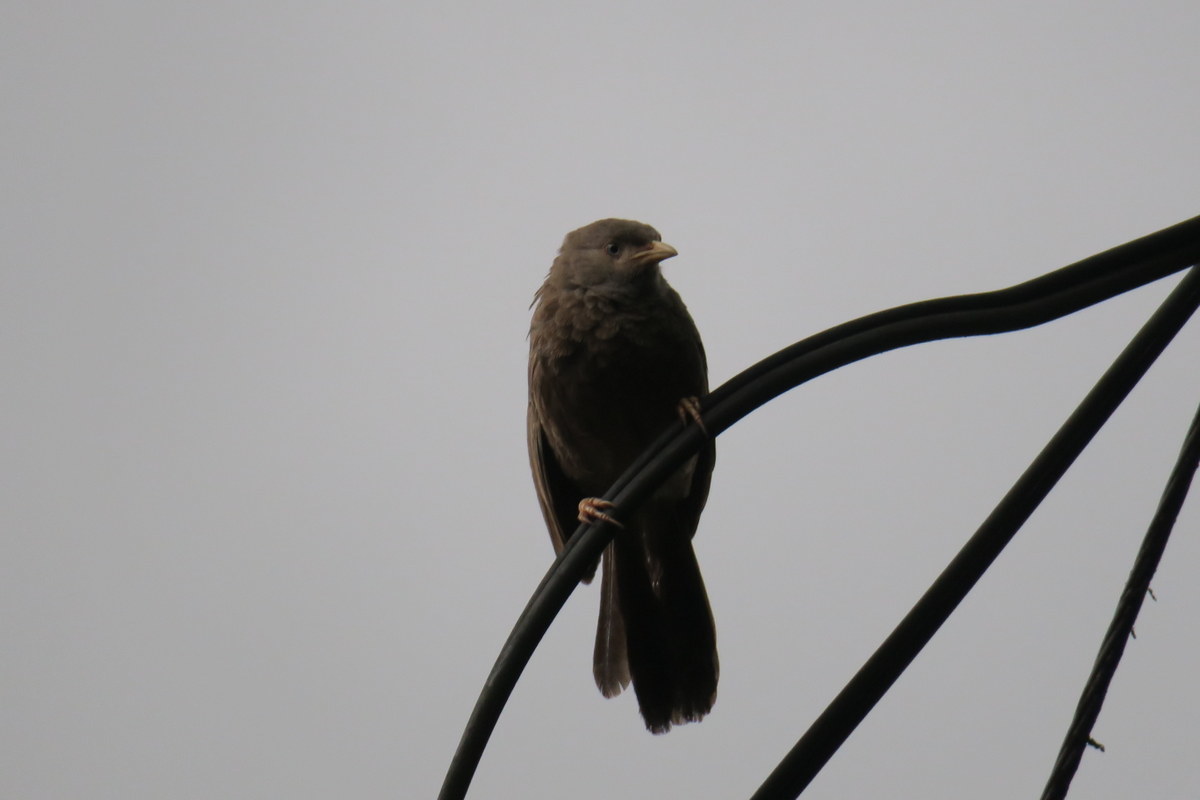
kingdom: Animalia
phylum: Chordata
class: Aves
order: Passeriformes
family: Leiothrichidae
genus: Turdoides
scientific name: Turdoides affinis
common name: Yellow-billed babbler
